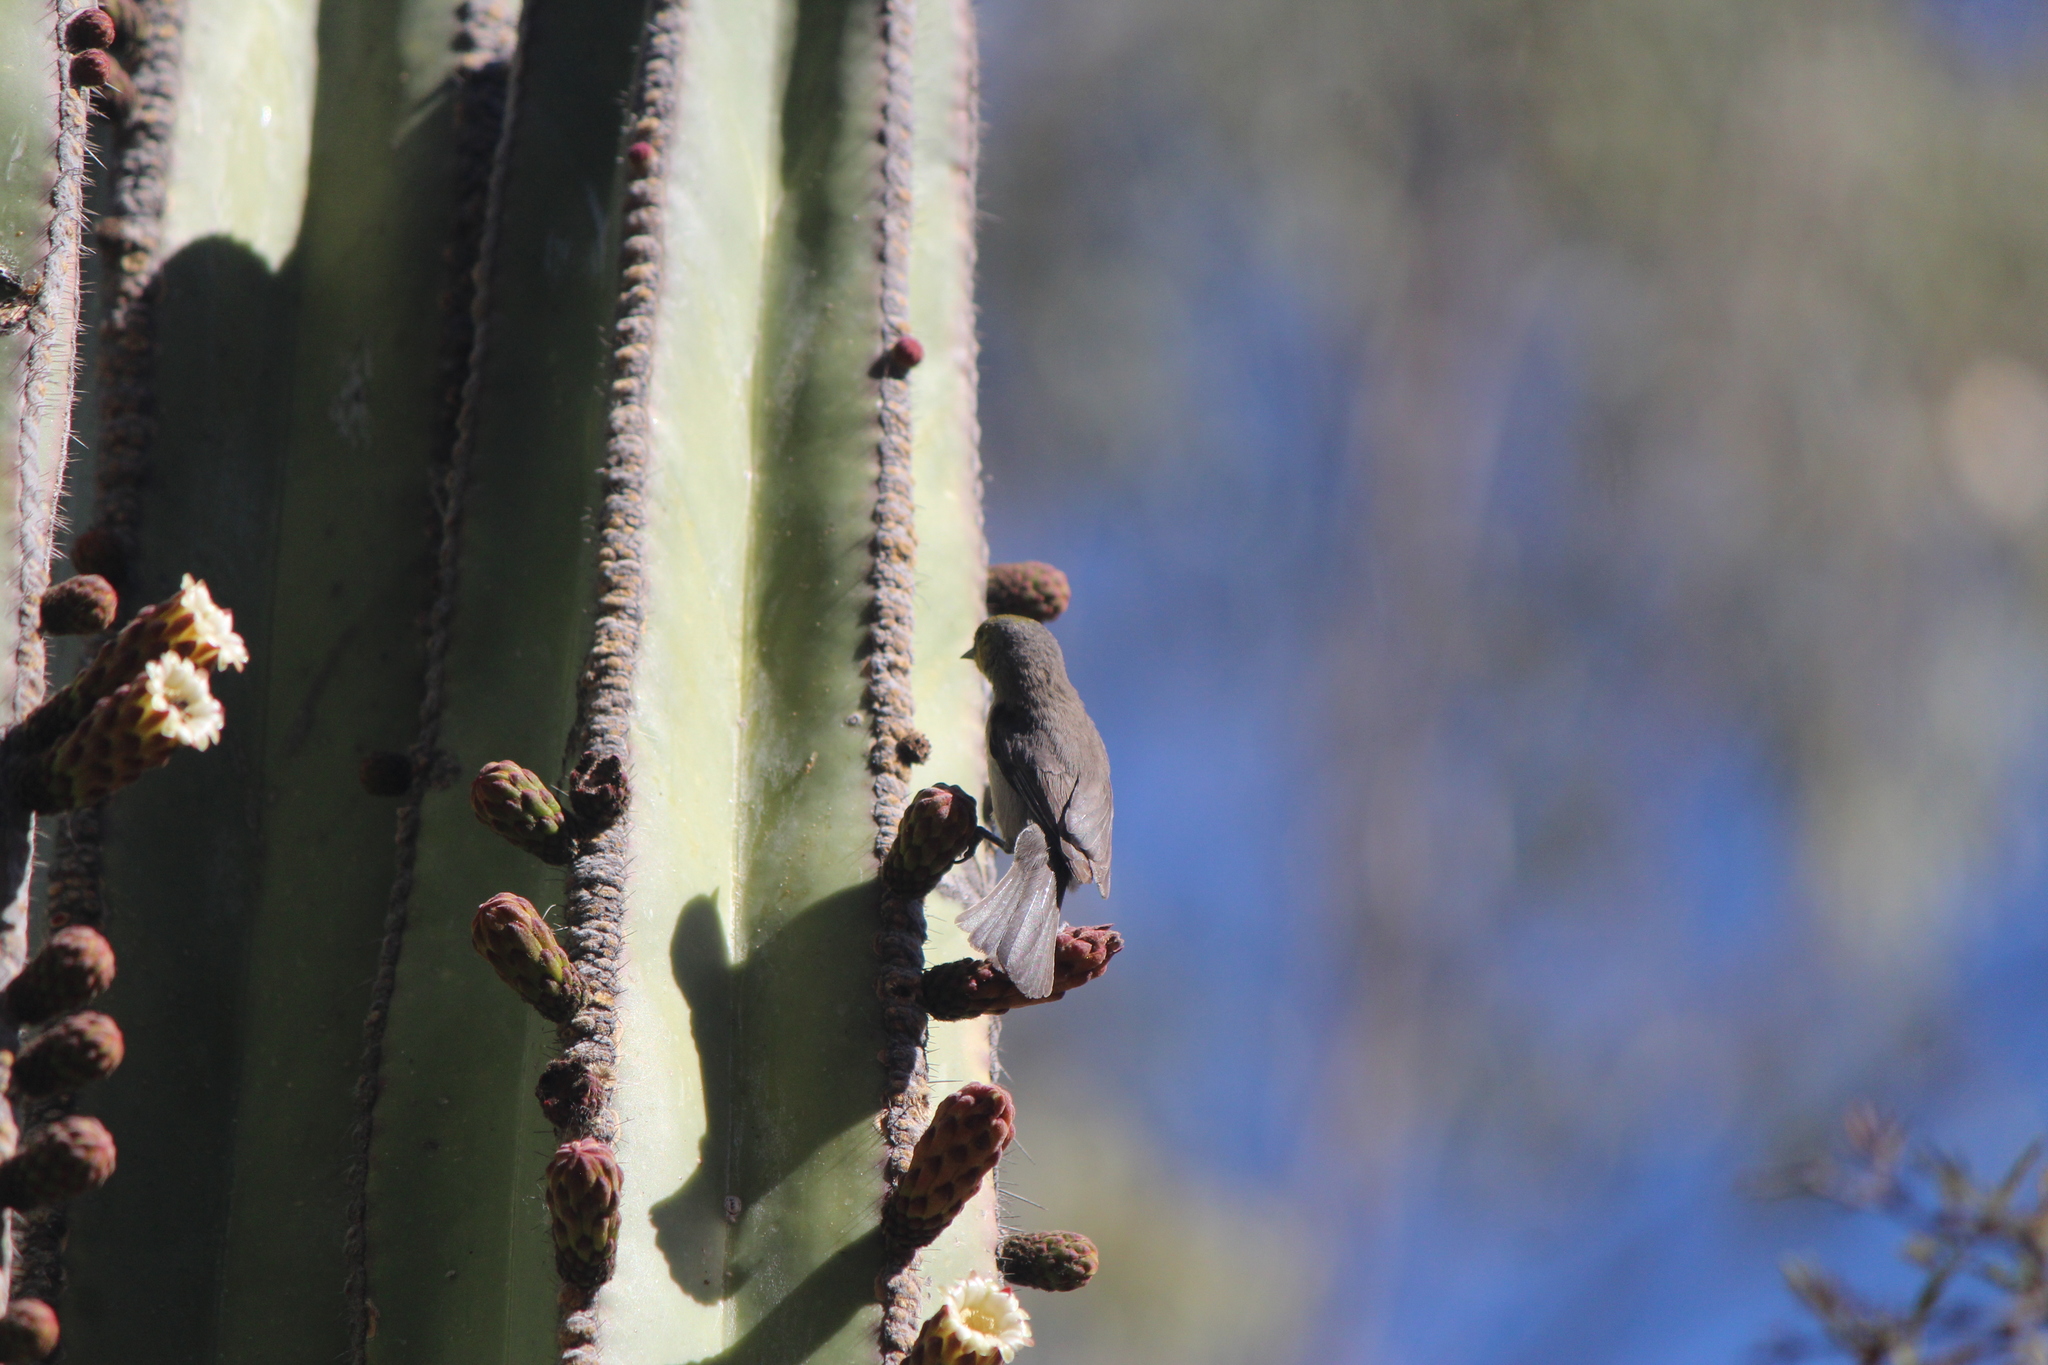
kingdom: Animalia
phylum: Chordata
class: Aves
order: Passeriformes
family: Remizidae
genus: Auriparus
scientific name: Auriparus flaviceps
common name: Verdin
